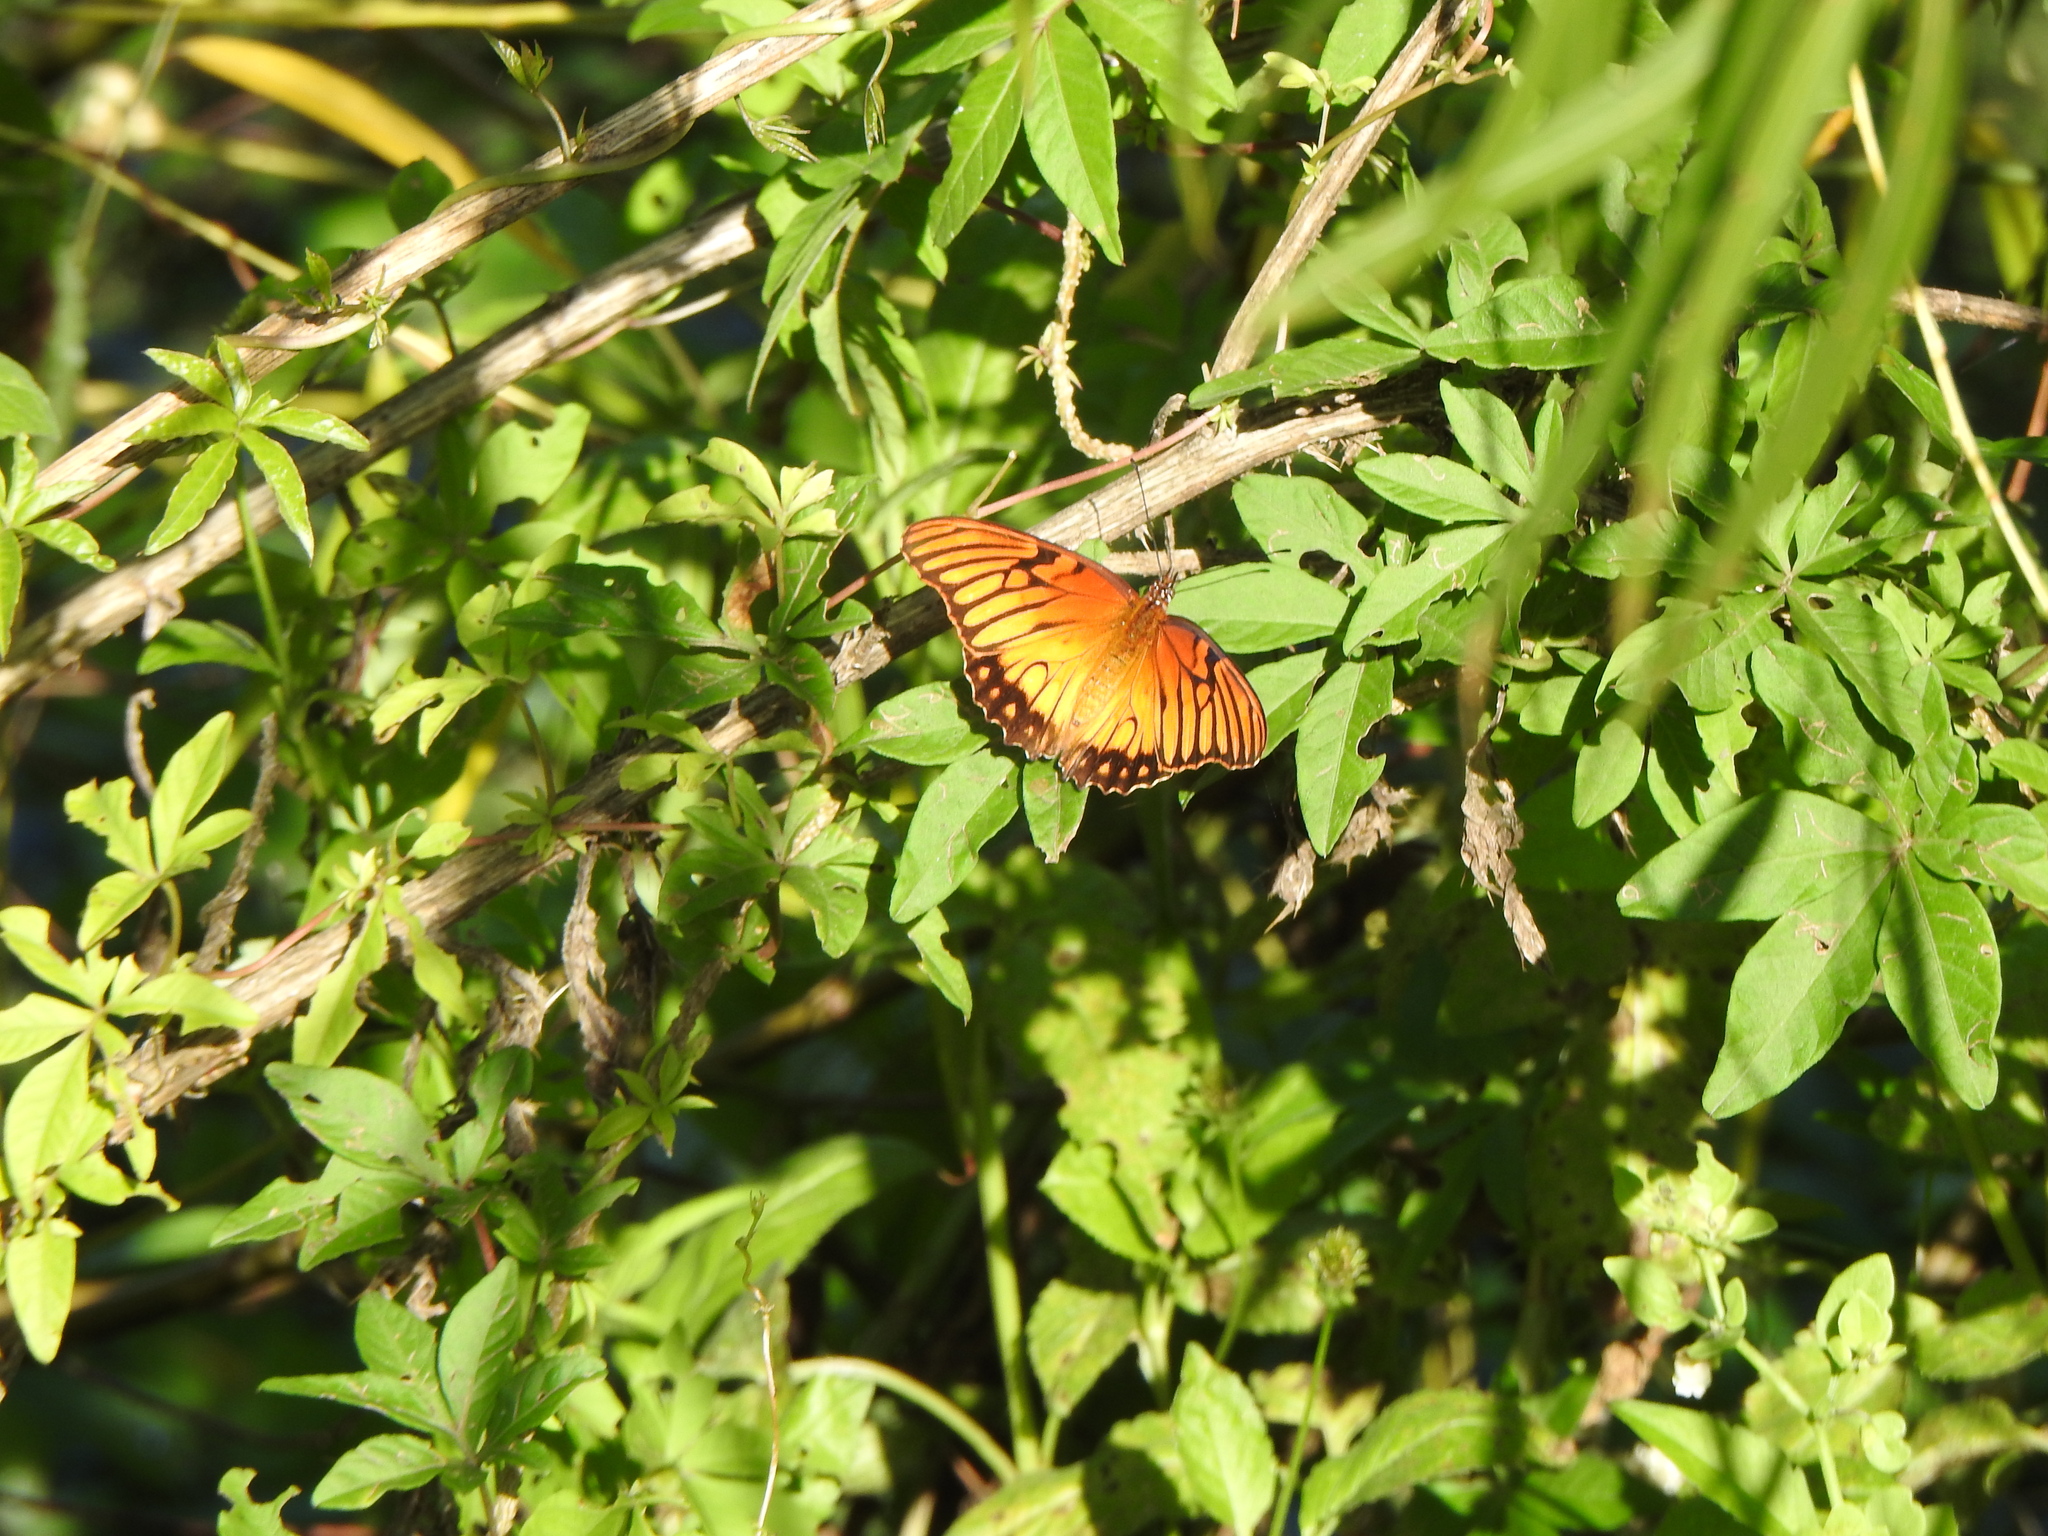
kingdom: Animalia
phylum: Arthropoda
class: Insecta
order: Lepidoptera
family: Nymphalidae
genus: Dione
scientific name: Dione moneta
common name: Mexican silverspot
